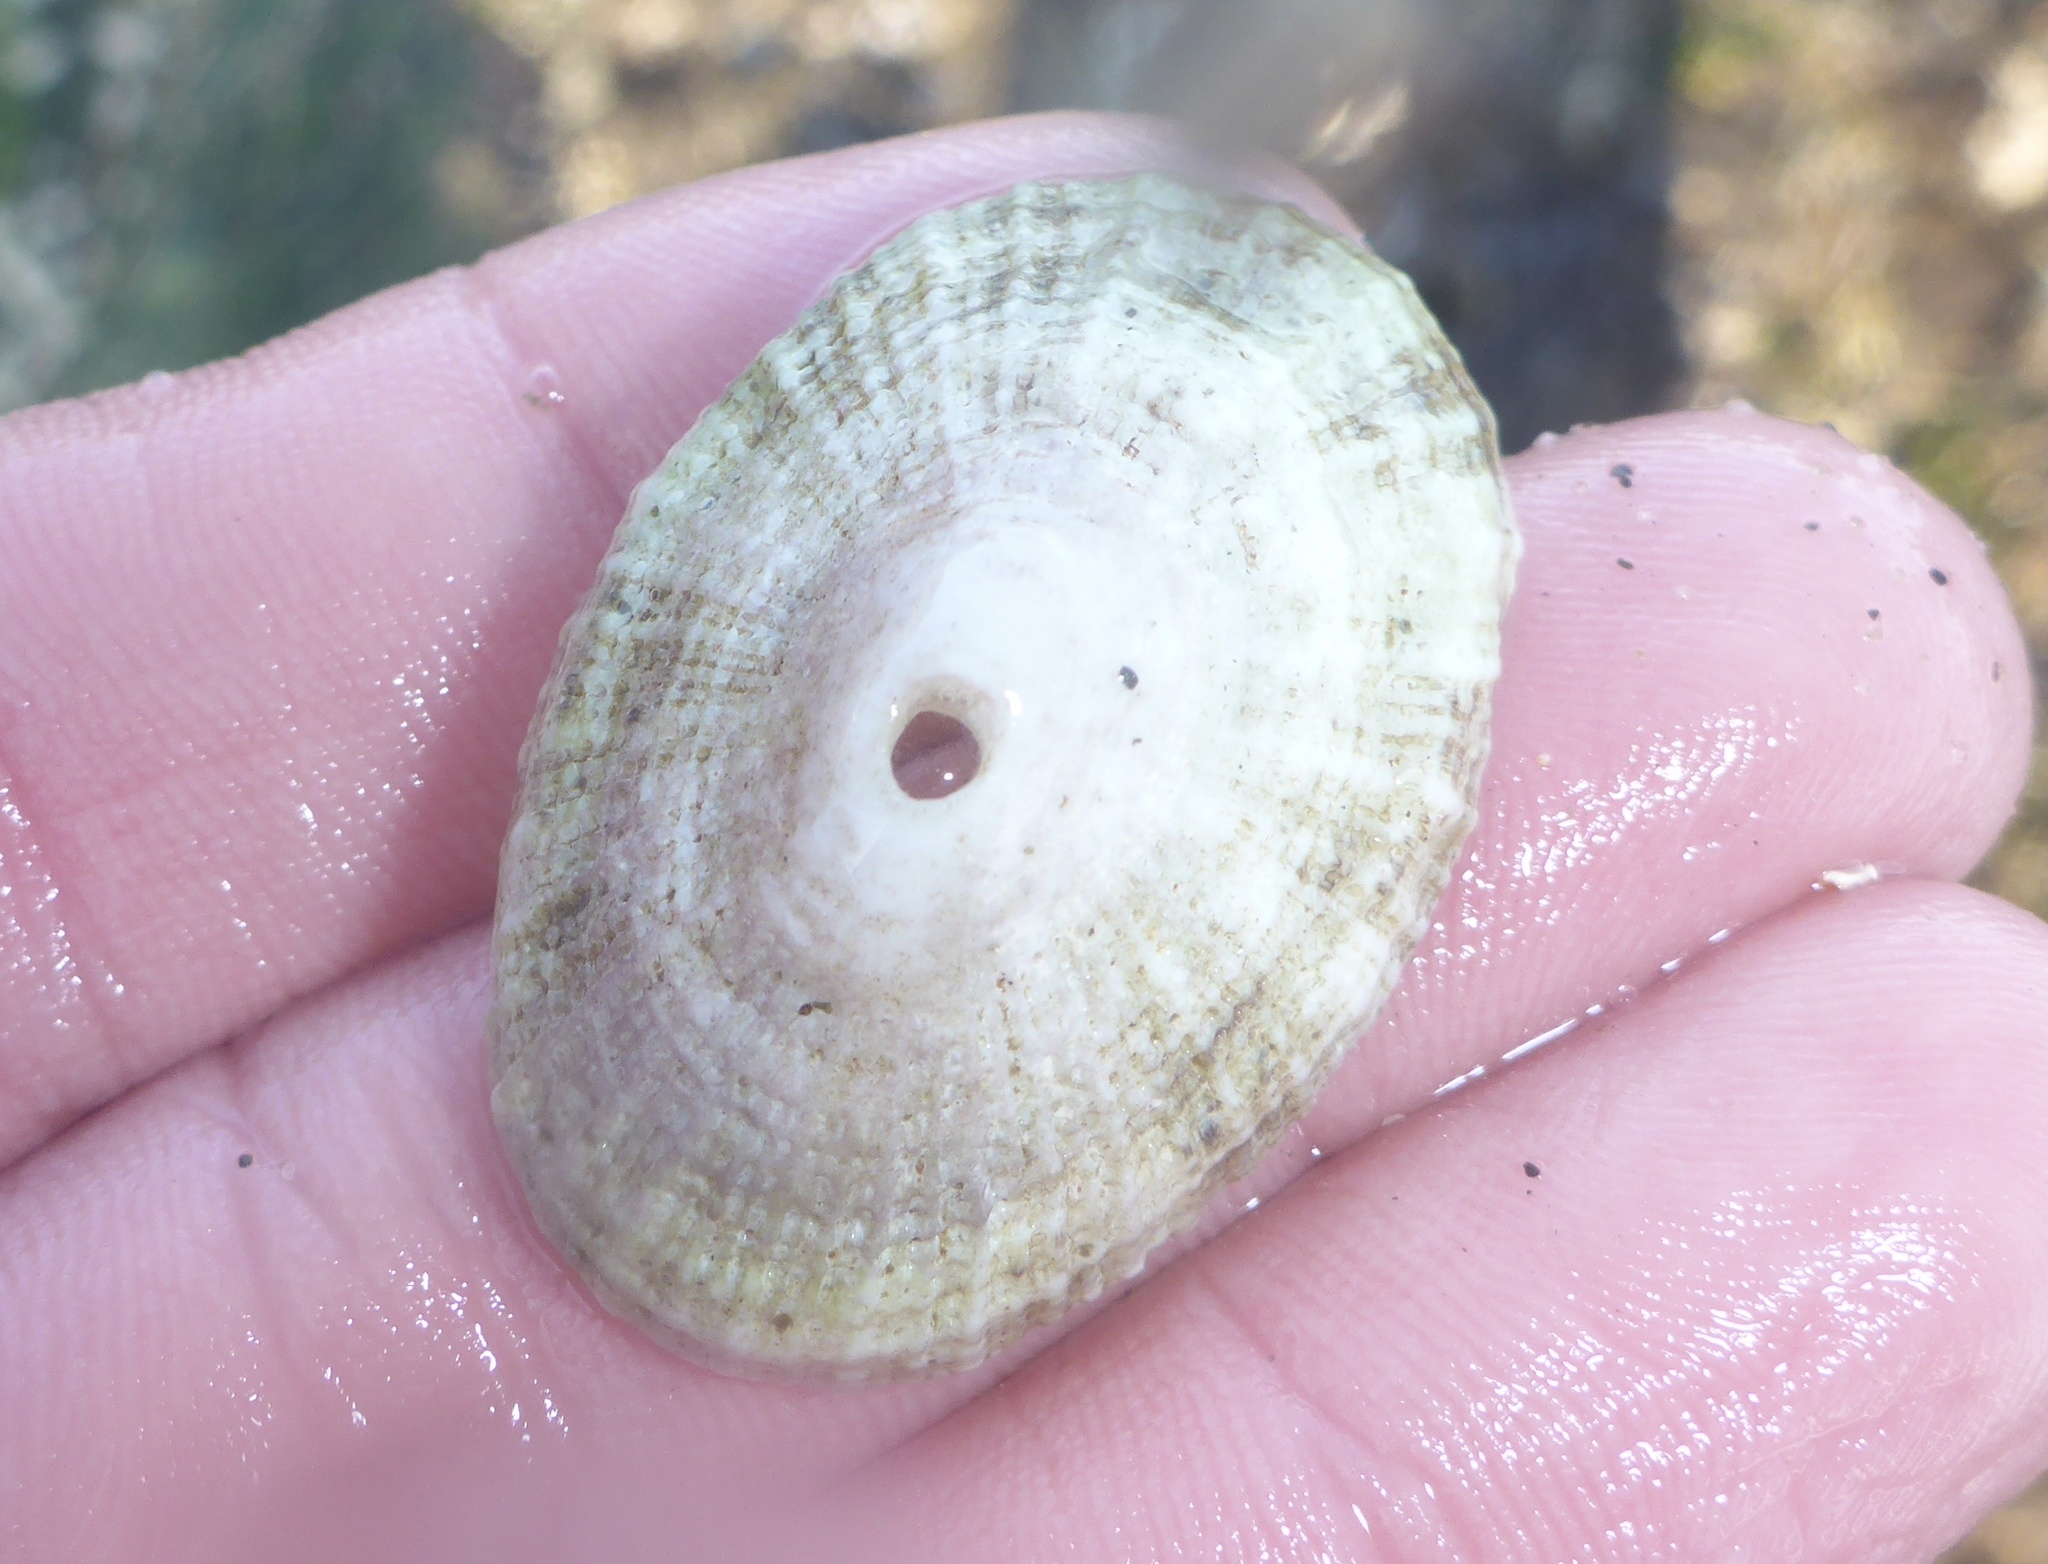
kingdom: Animalia
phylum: Mollusca
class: Gastropoda
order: Lepetellida
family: Fissurellidae
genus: Diodora
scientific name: Diodora aspera
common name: Rough keyhole limpet
